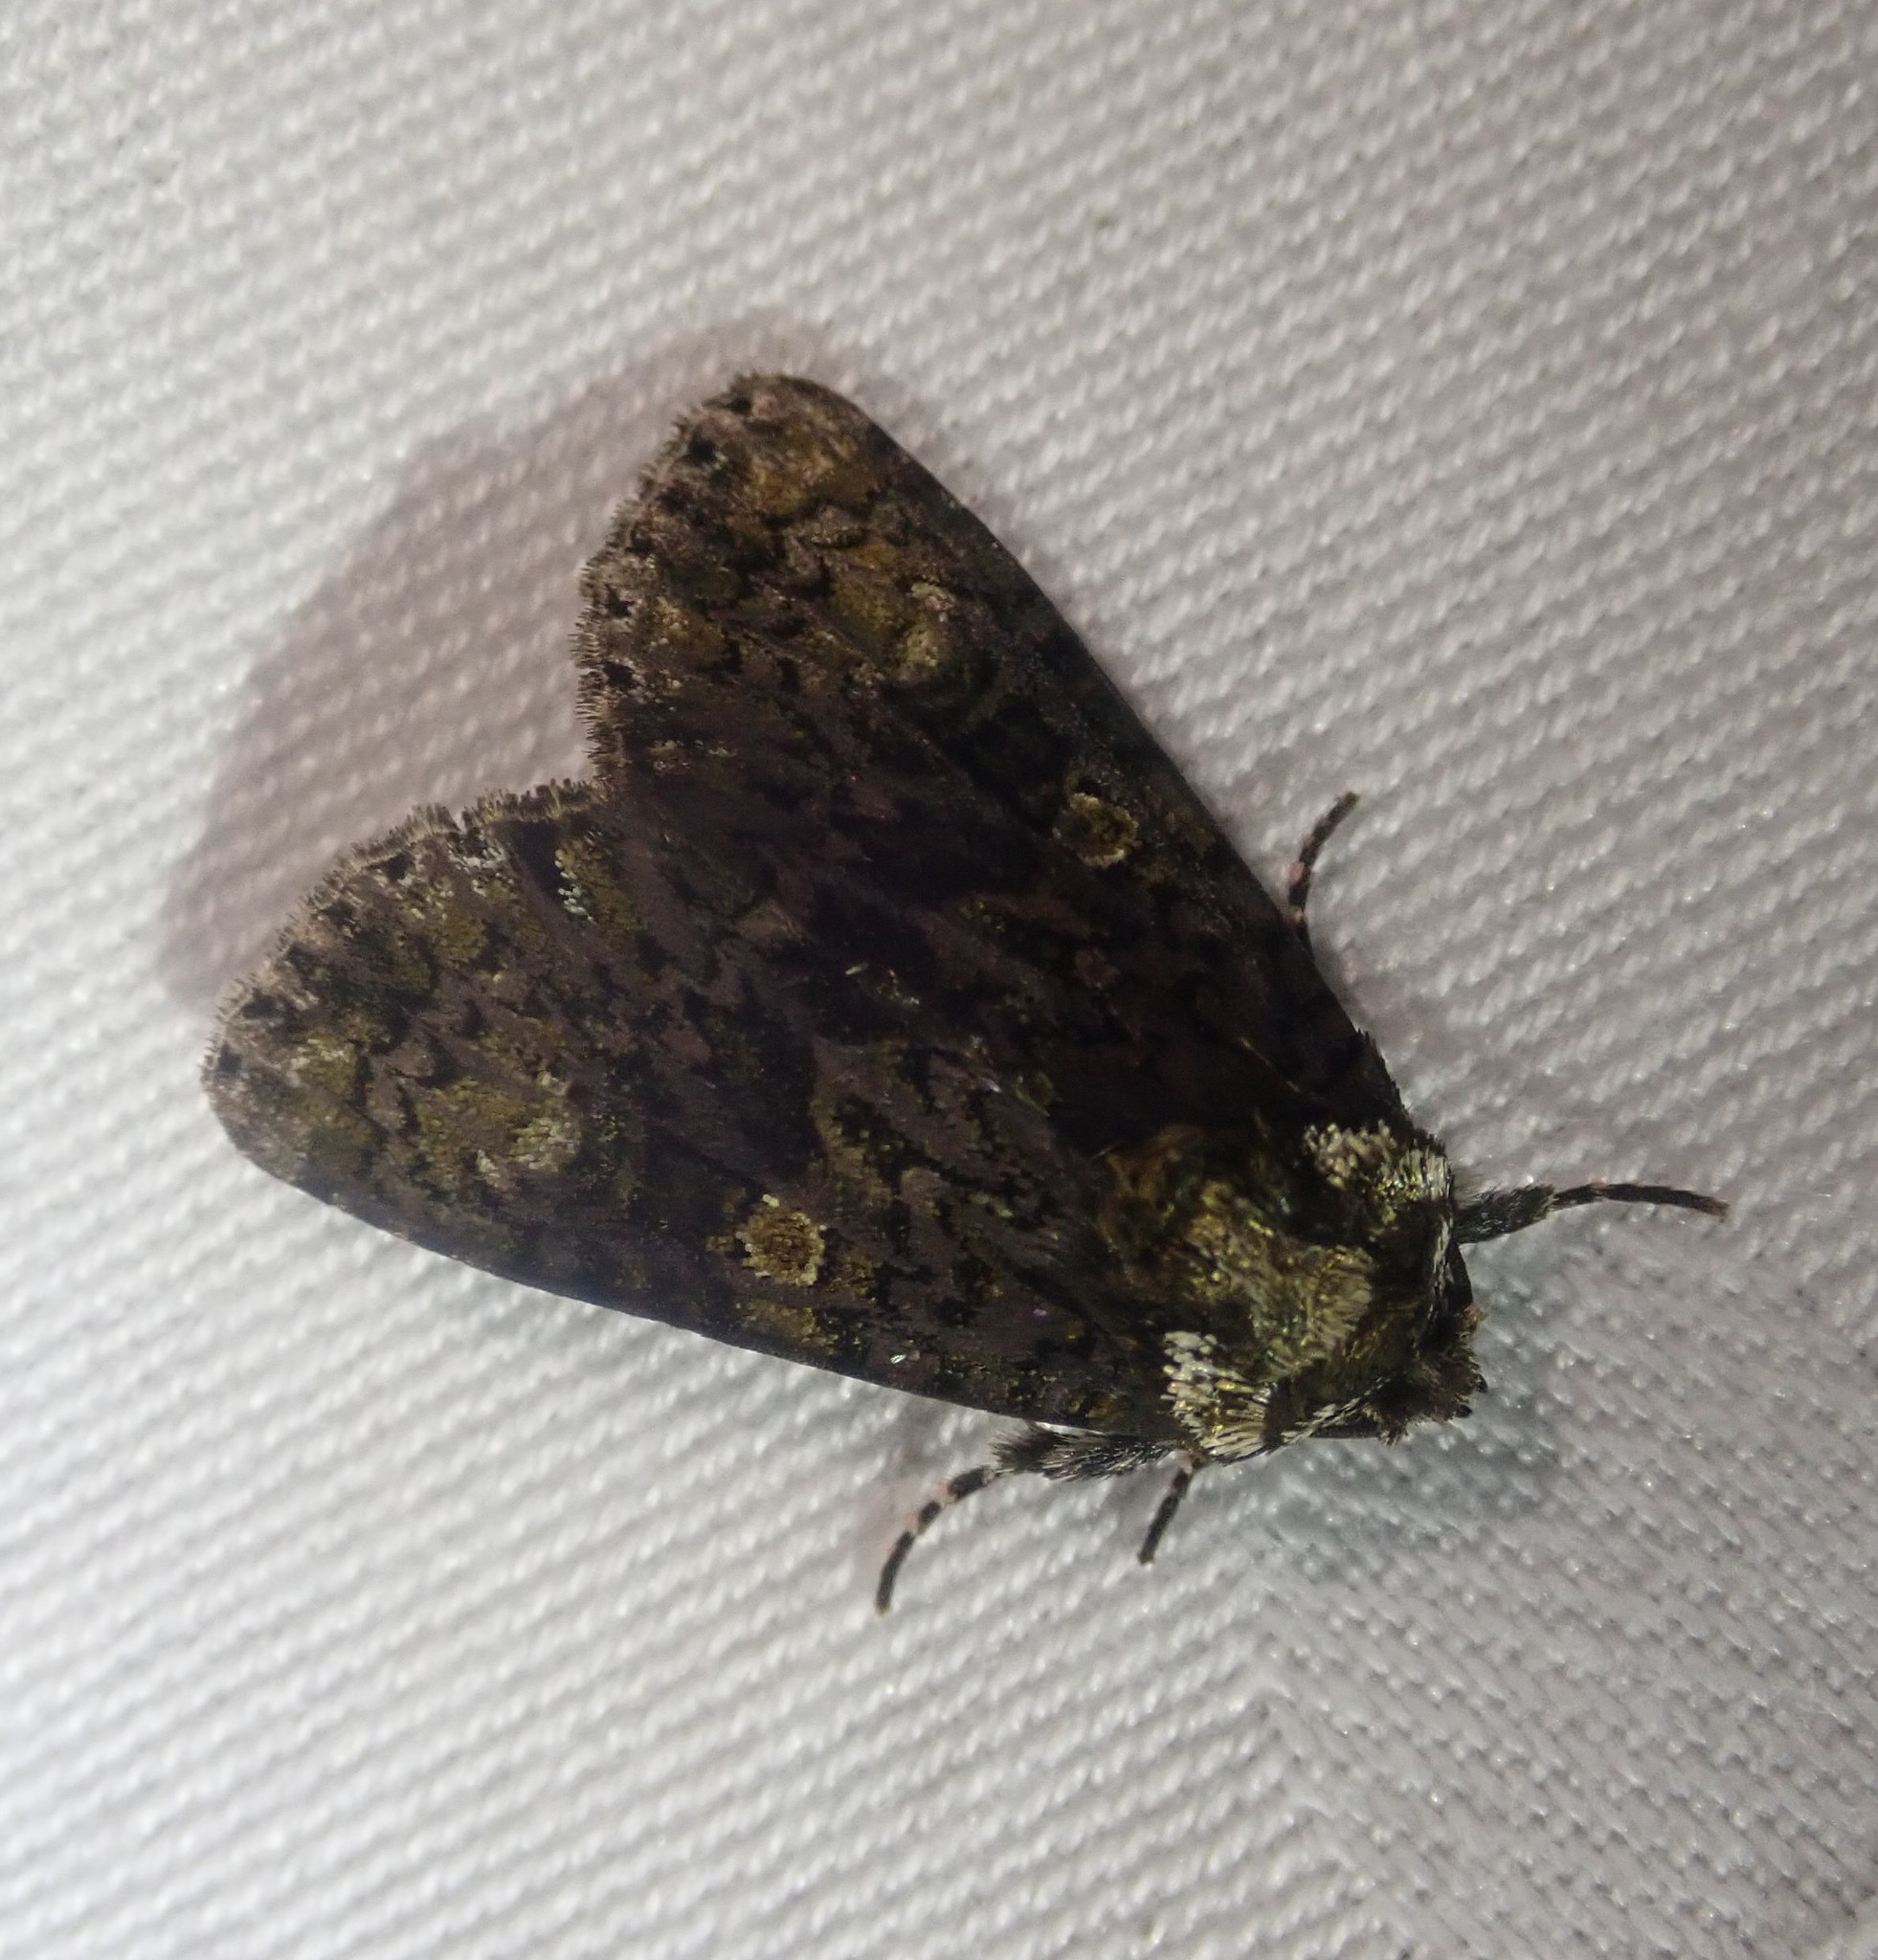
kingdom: Animalia
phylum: Arthropoda
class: Insecta
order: Lepidoptera
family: Noctuidae
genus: Craniophora
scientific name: Craniophora ligustri
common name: Coronet
